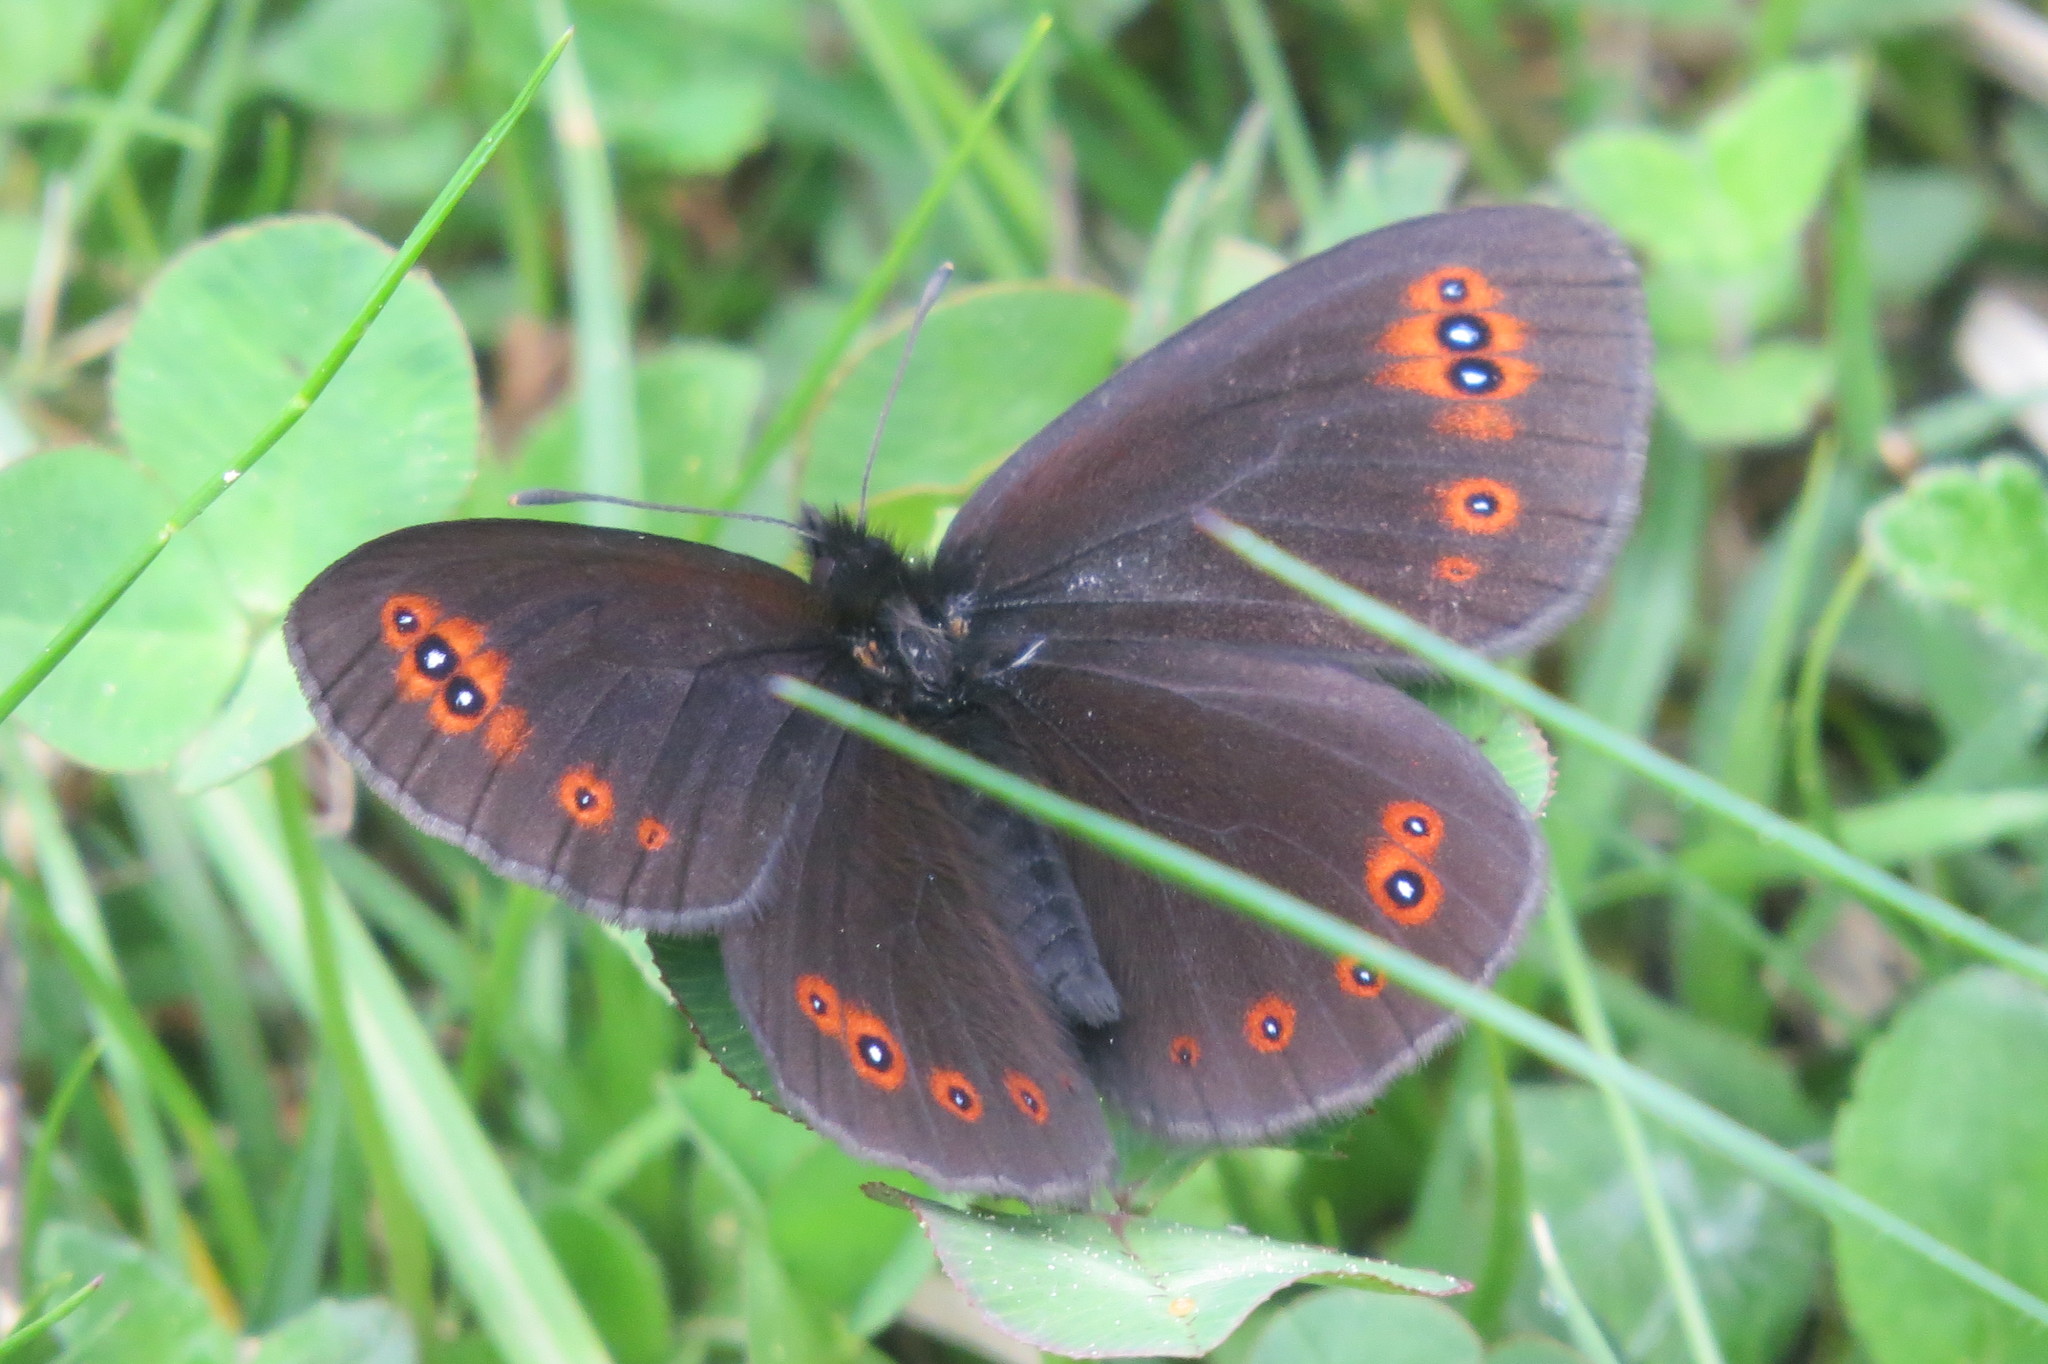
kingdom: Animalia
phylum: Arthropoda
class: Insecta
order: Lepidoptera
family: Nymphalidae
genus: Erebia
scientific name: Erebia medusa
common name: Woodland ringlet
